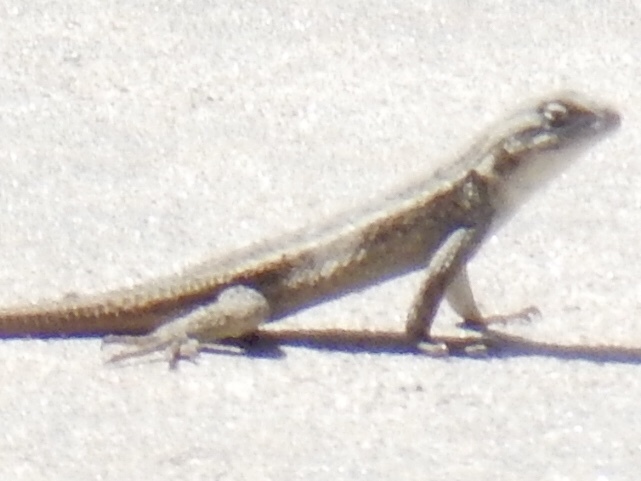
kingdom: Animalia
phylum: Chordata
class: Squamata
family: Phrynosomatidae
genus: Sceloporus
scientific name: Sceloporus tristichus
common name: Plateau fence lizard
